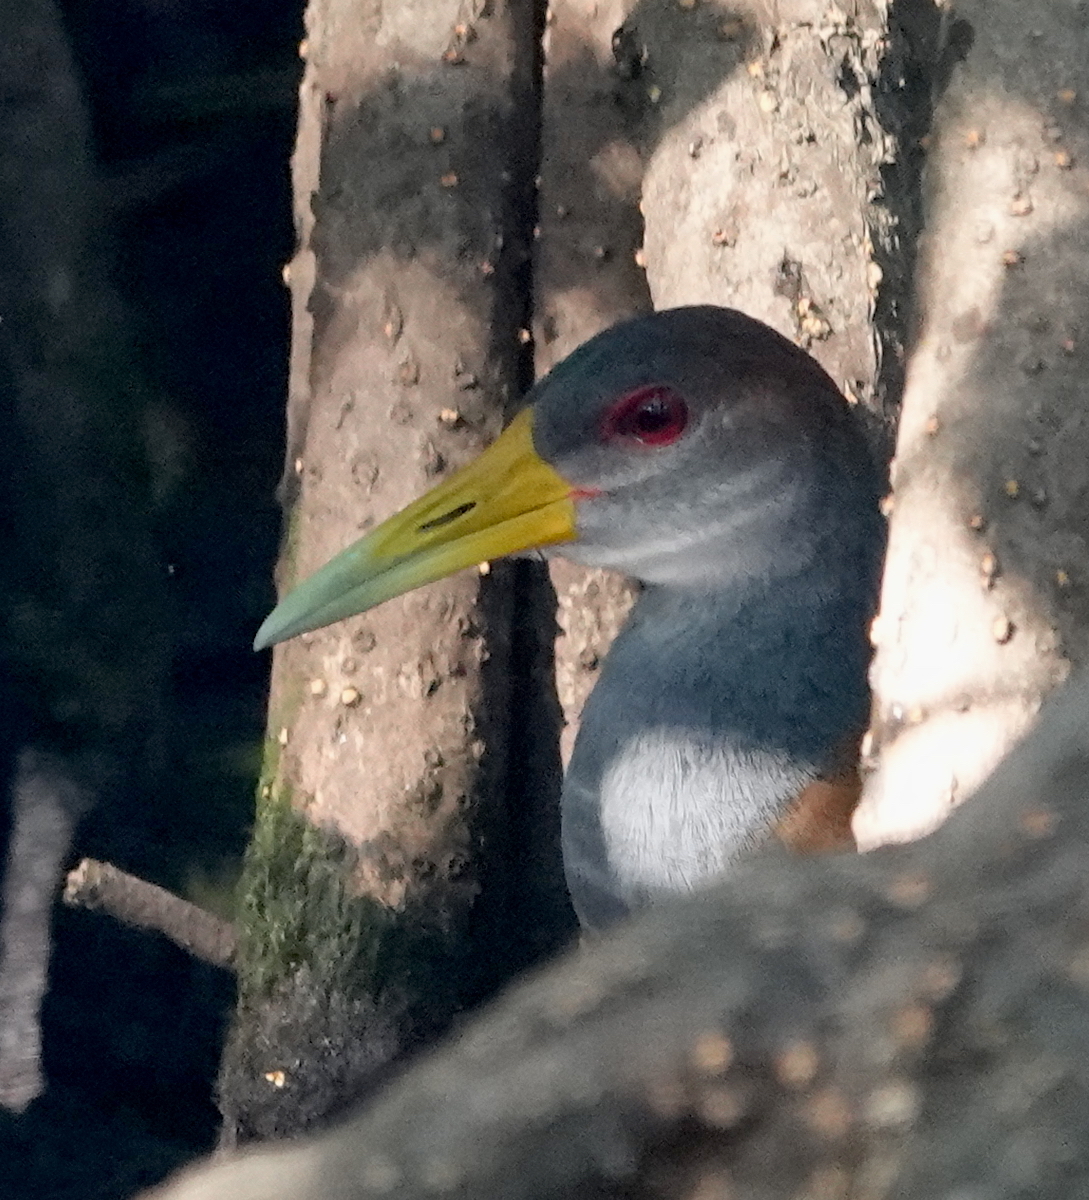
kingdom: Animalia
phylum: Chordata
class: Aves
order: Gruiformes
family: Rallidae
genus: Aramides
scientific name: Aramides albiventris
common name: Russet-naped wood-rail
